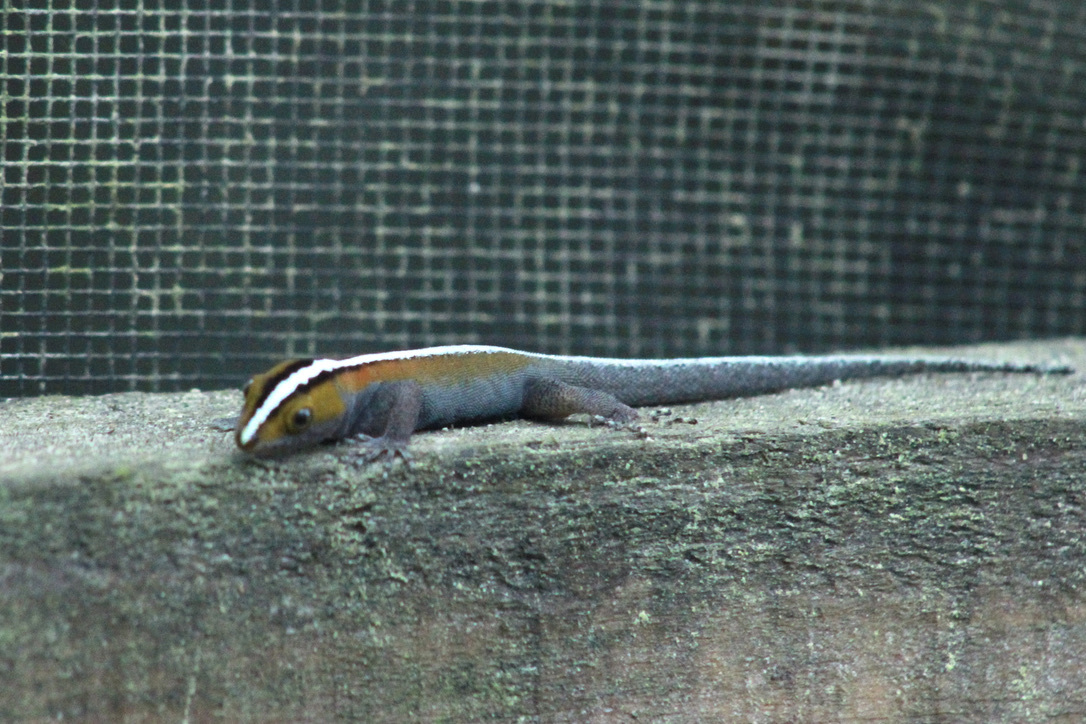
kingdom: Animalia
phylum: Chordata
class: Squamata
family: Sphaerodactylidae
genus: Gonatodes
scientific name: Gonatodes vittatus
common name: Wiegmann's striped gecko
